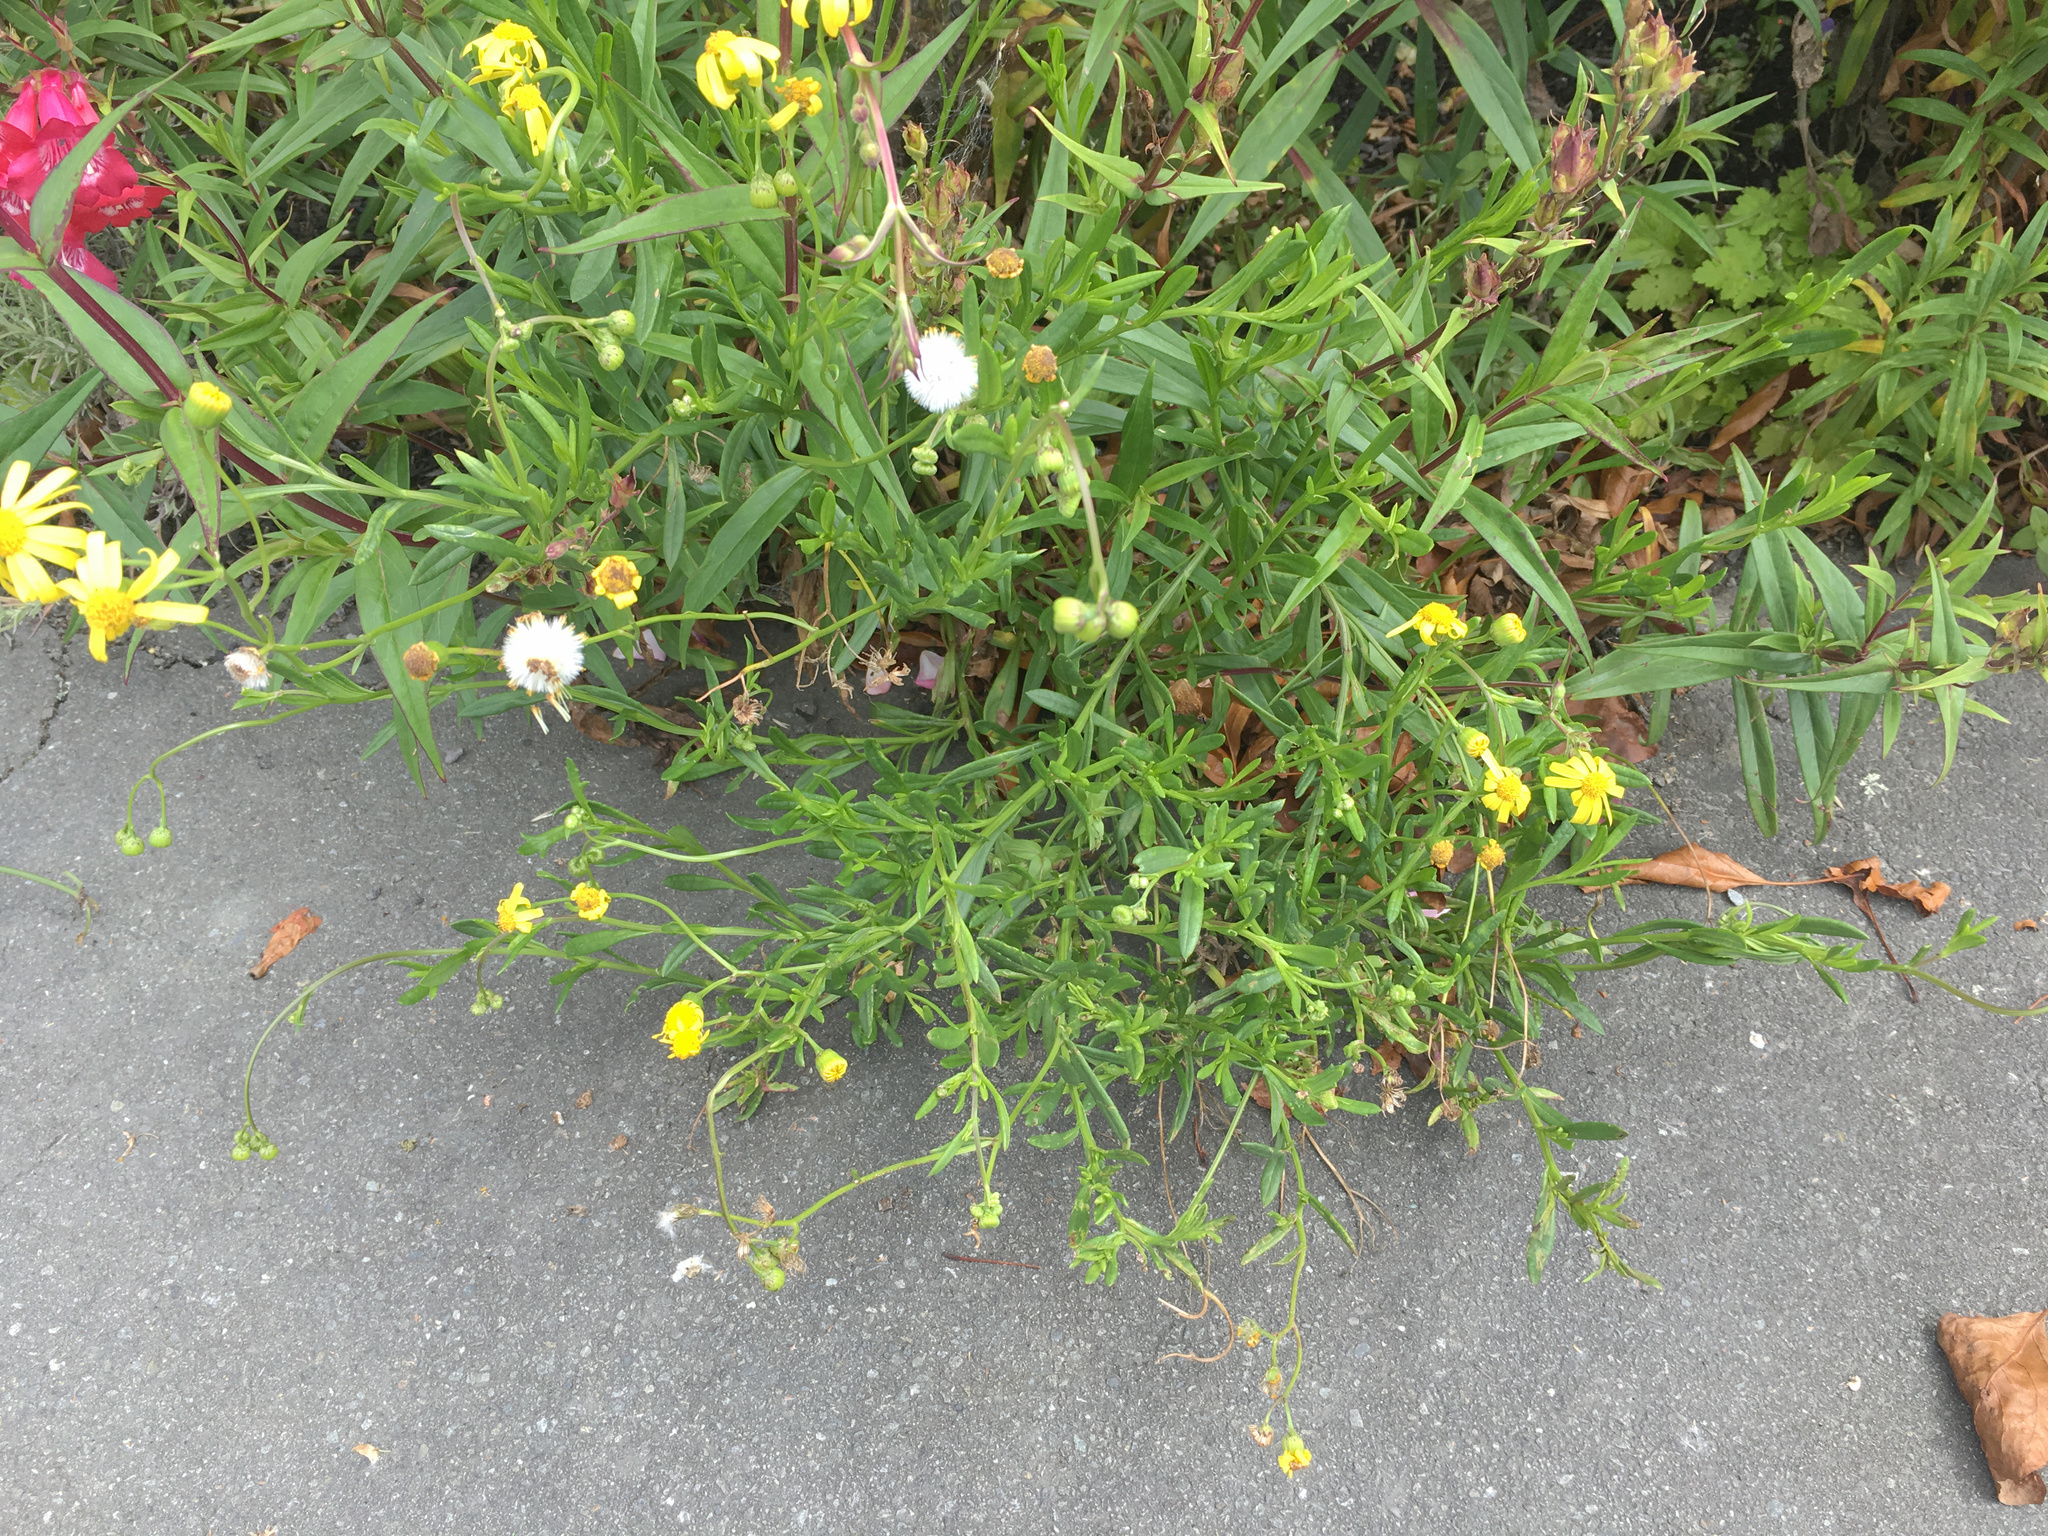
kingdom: Plantae
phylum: Tracheophyta
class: Magnoliopsida
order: Asterales
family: Asteraceae
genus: Senecio
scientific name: Senecio skirrhodon
